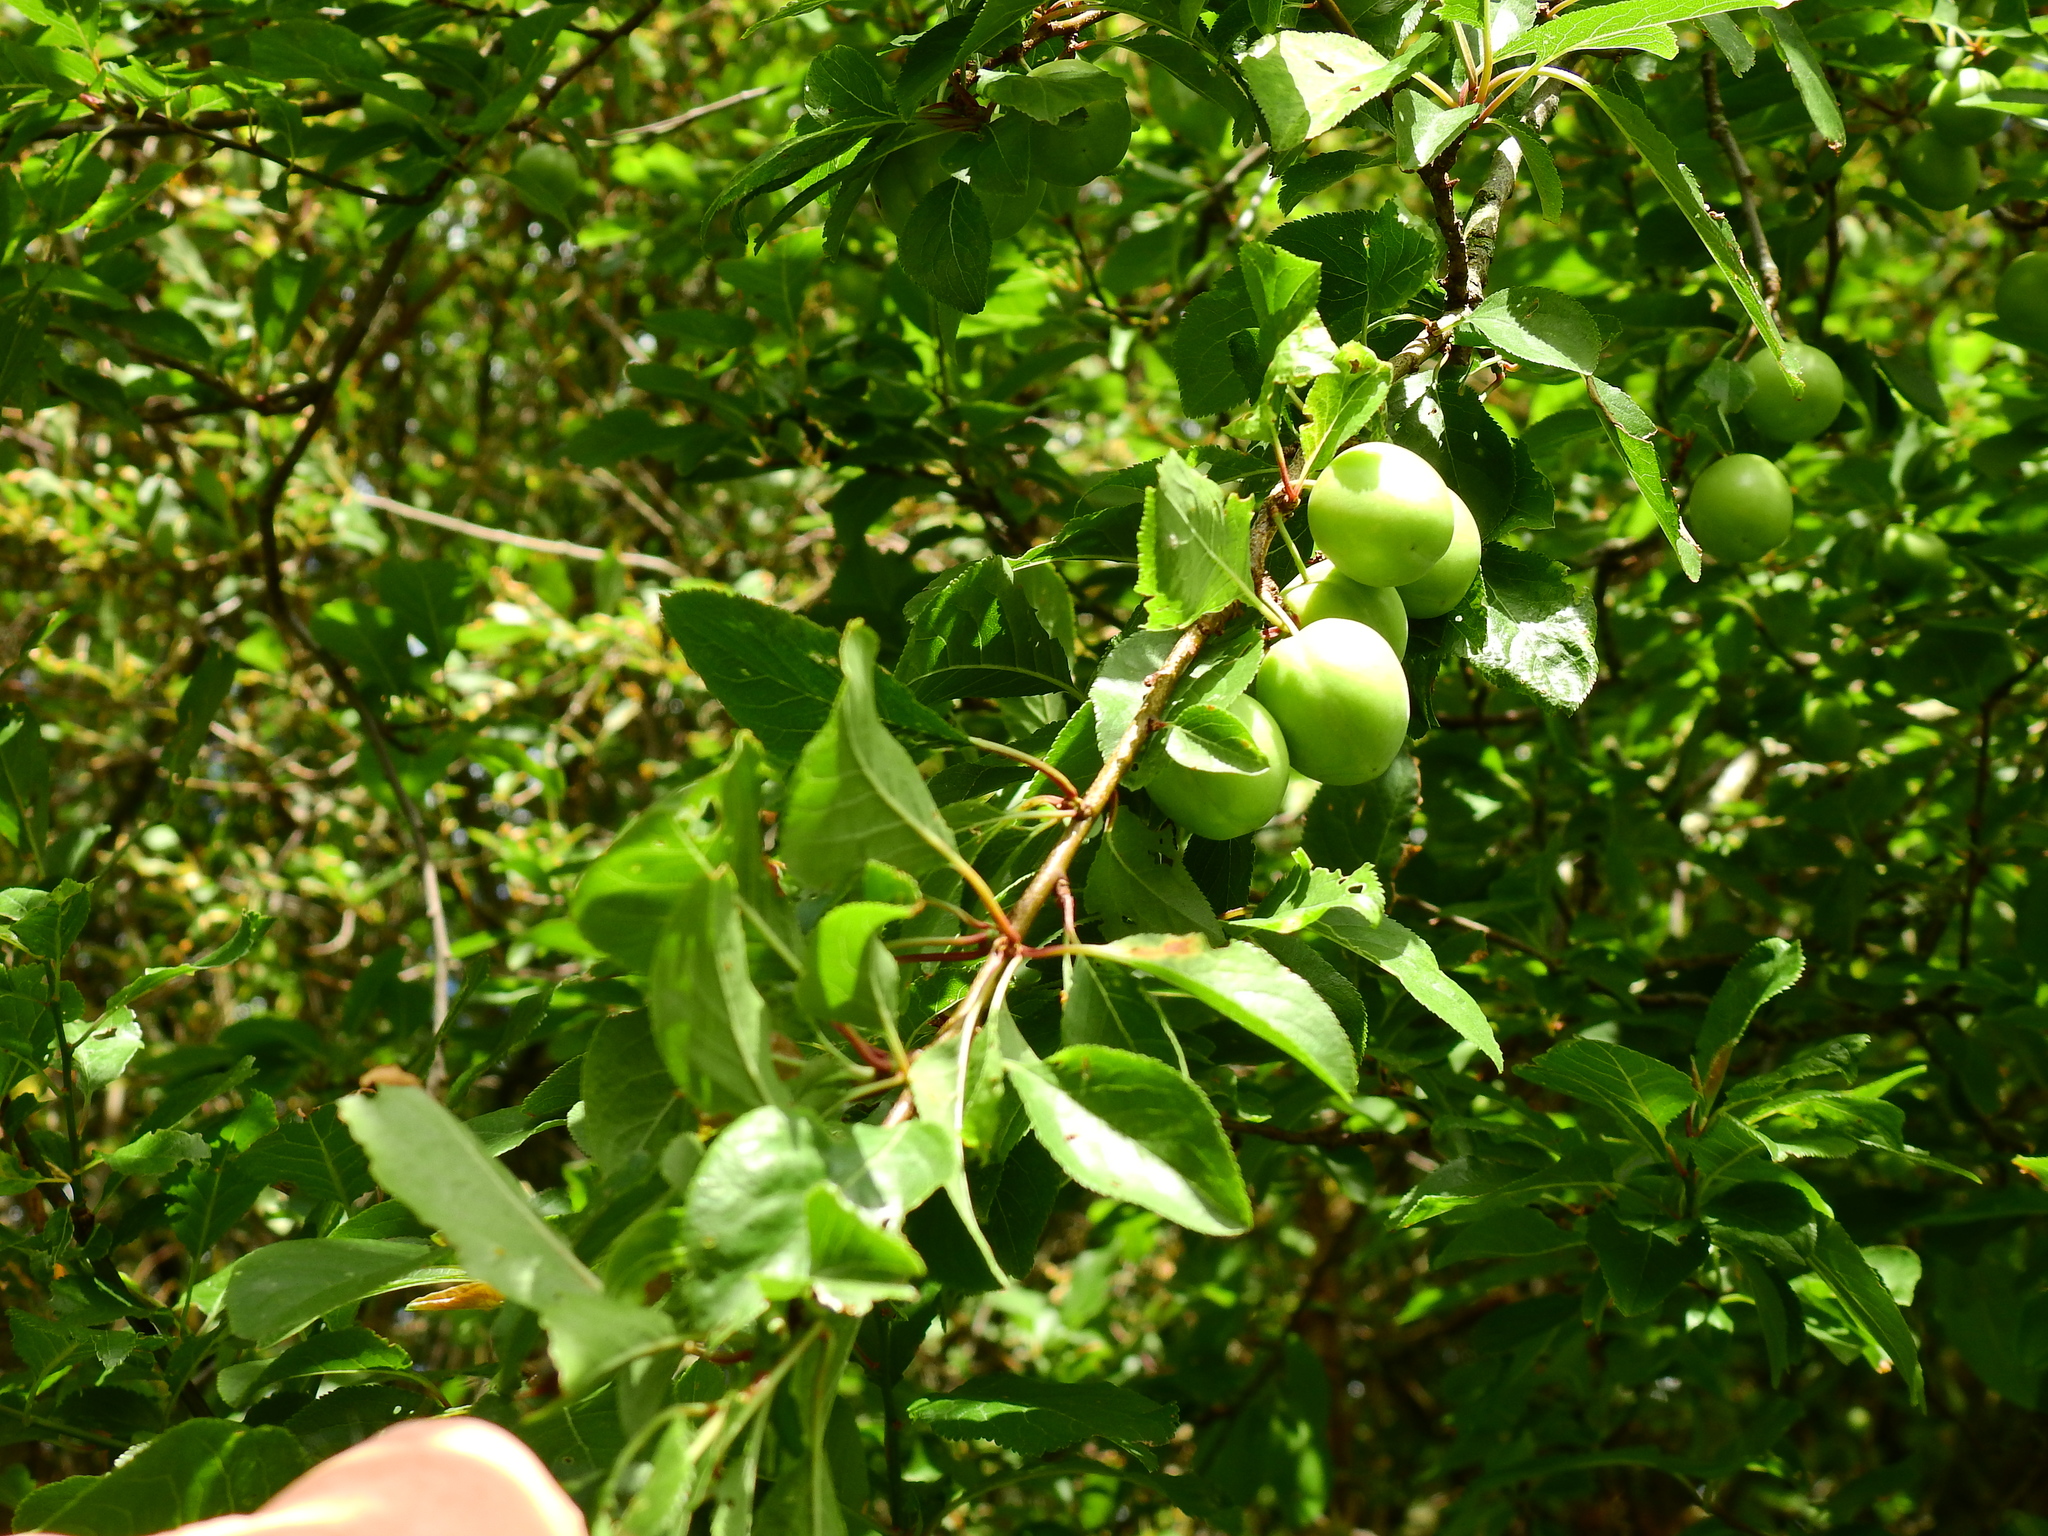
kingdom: Plantae
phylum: Tracheophyta
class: Magnoliopsida
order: Rosales
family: Rosaceae
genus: Prunus
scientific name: Prunus cerasifera
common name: Cherry plum
